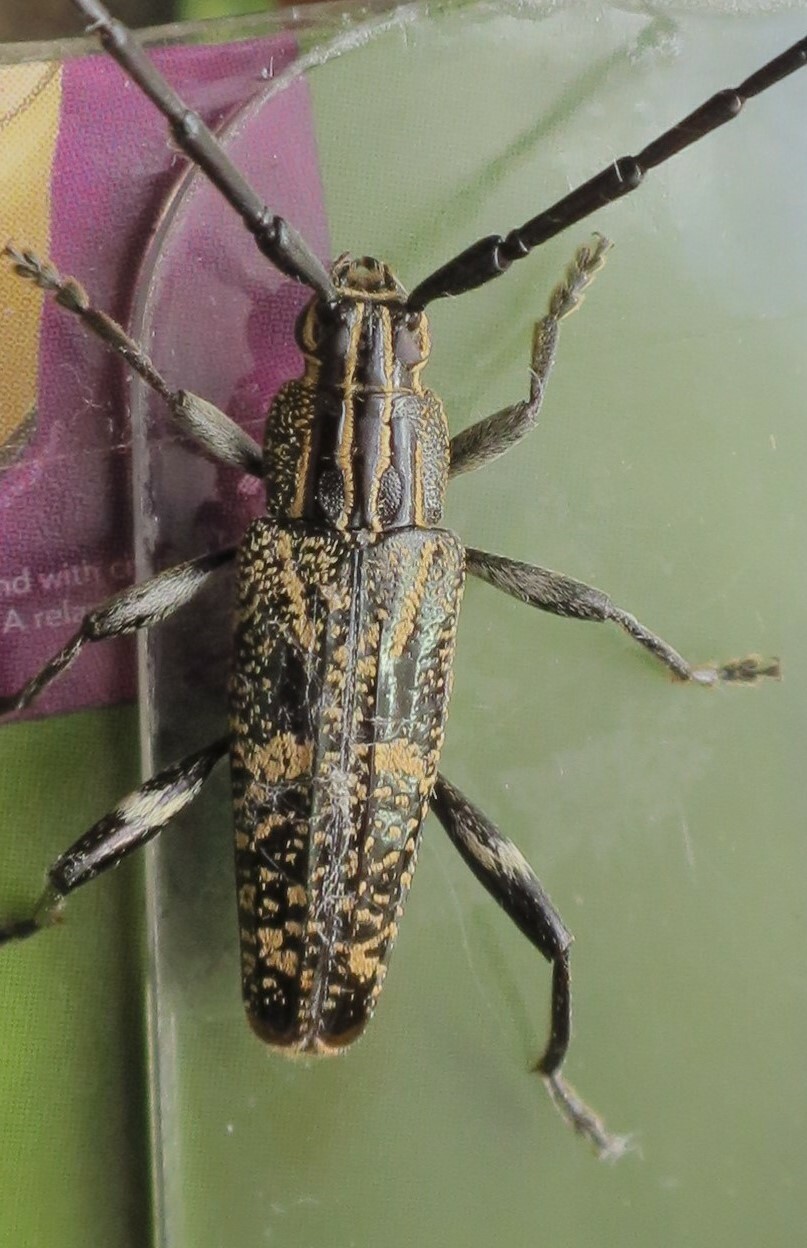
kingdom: Animalia
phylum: Arthropoda
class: Insecta
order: Coleoptera
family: Cerambycidae
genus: Coptomma
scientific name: Coptomma variegatum
